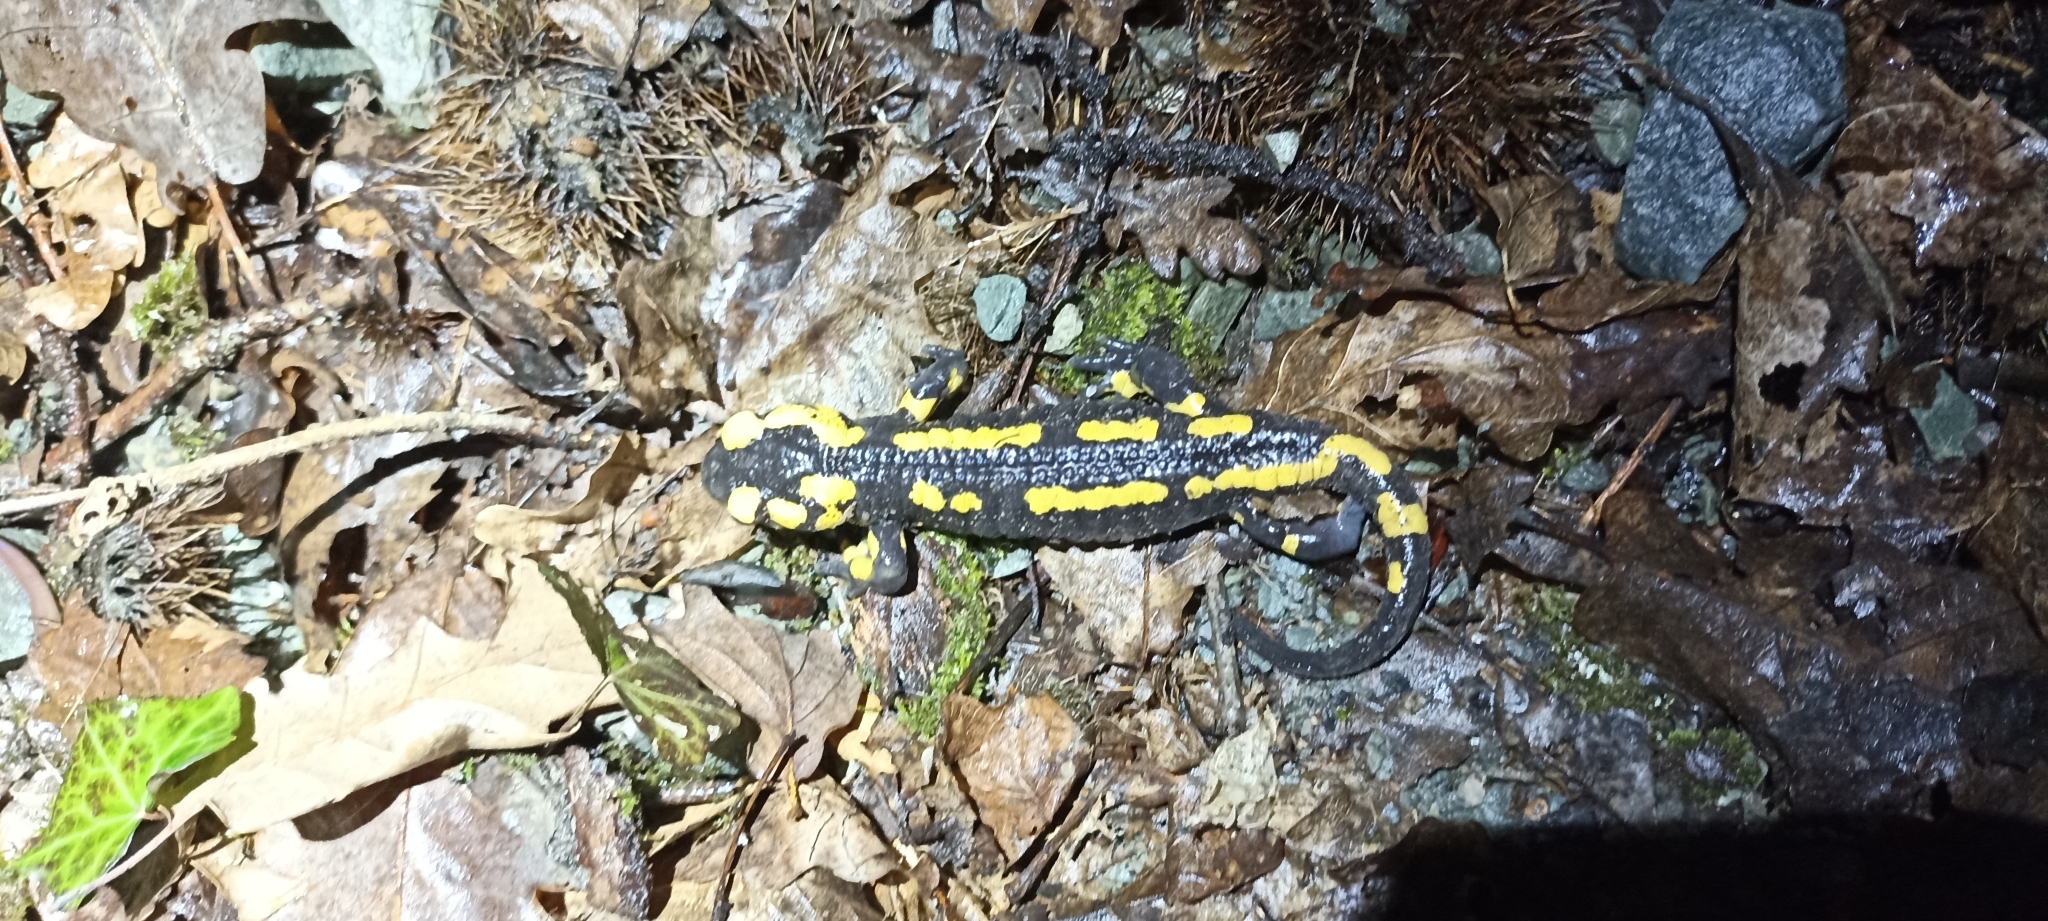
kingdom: Animalia
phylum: Chordata
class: Amphibia
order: Caudata
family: Salamandridae
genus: Salamandra
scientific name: Salamandra salamandra
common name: Fire salamander
